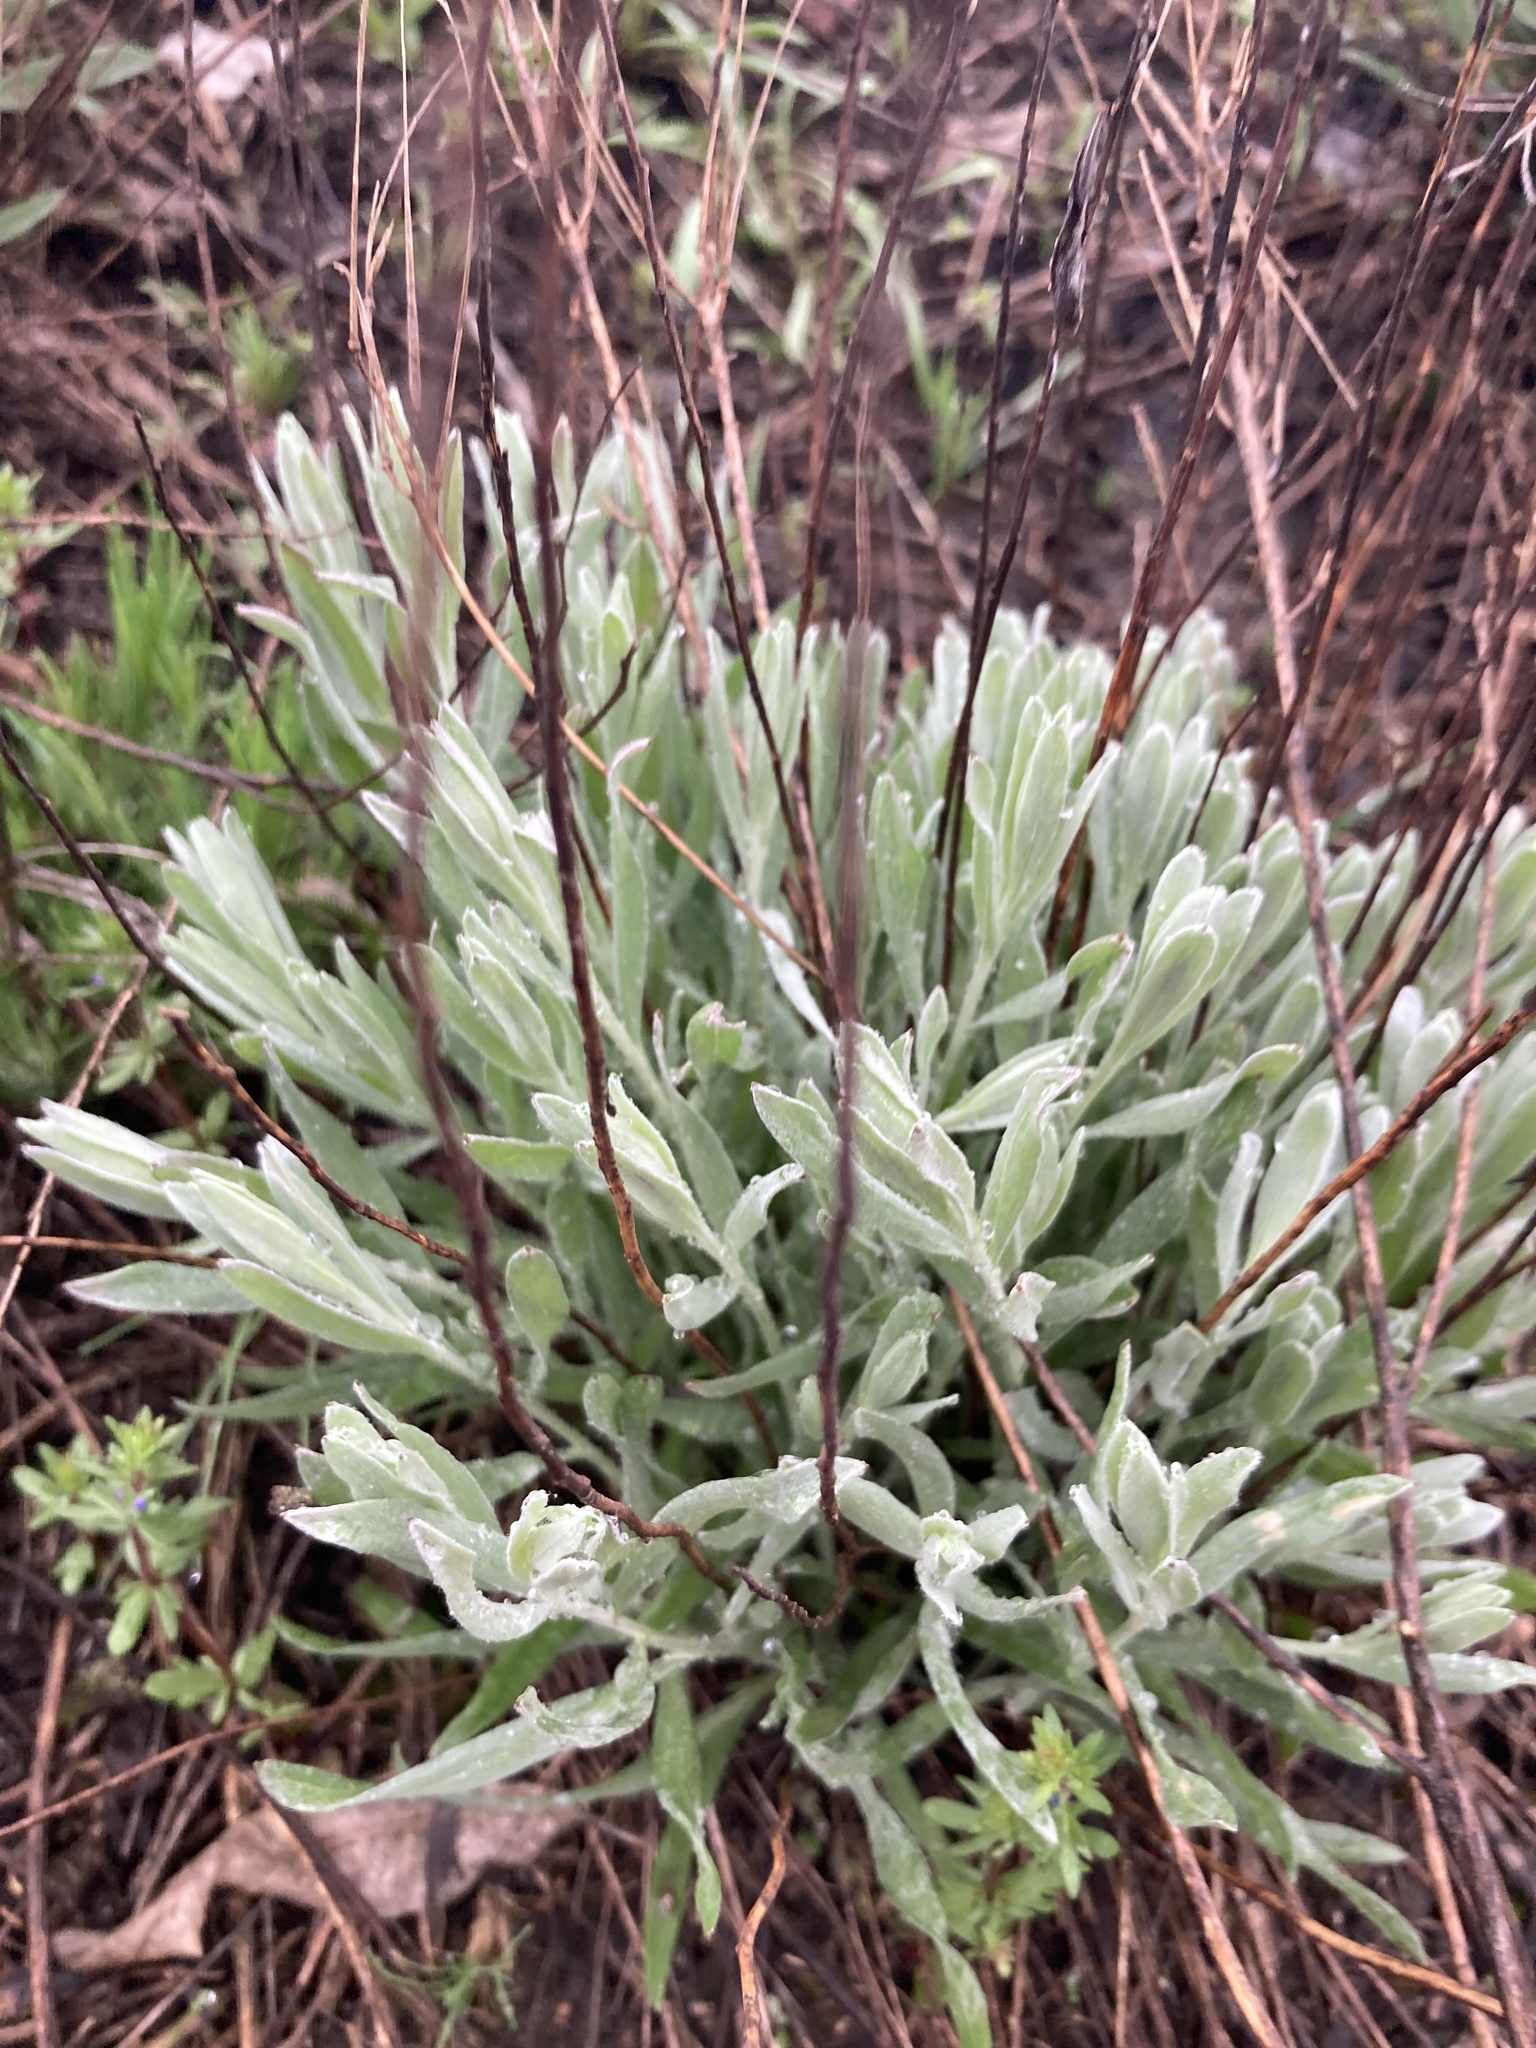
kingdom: Plantae
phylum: Tracheophyta
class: Magnoliopsida
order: Asterales
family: Asteraceae
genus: Helichrysum
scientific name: Helichrysum arenarium
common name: Strawflower
